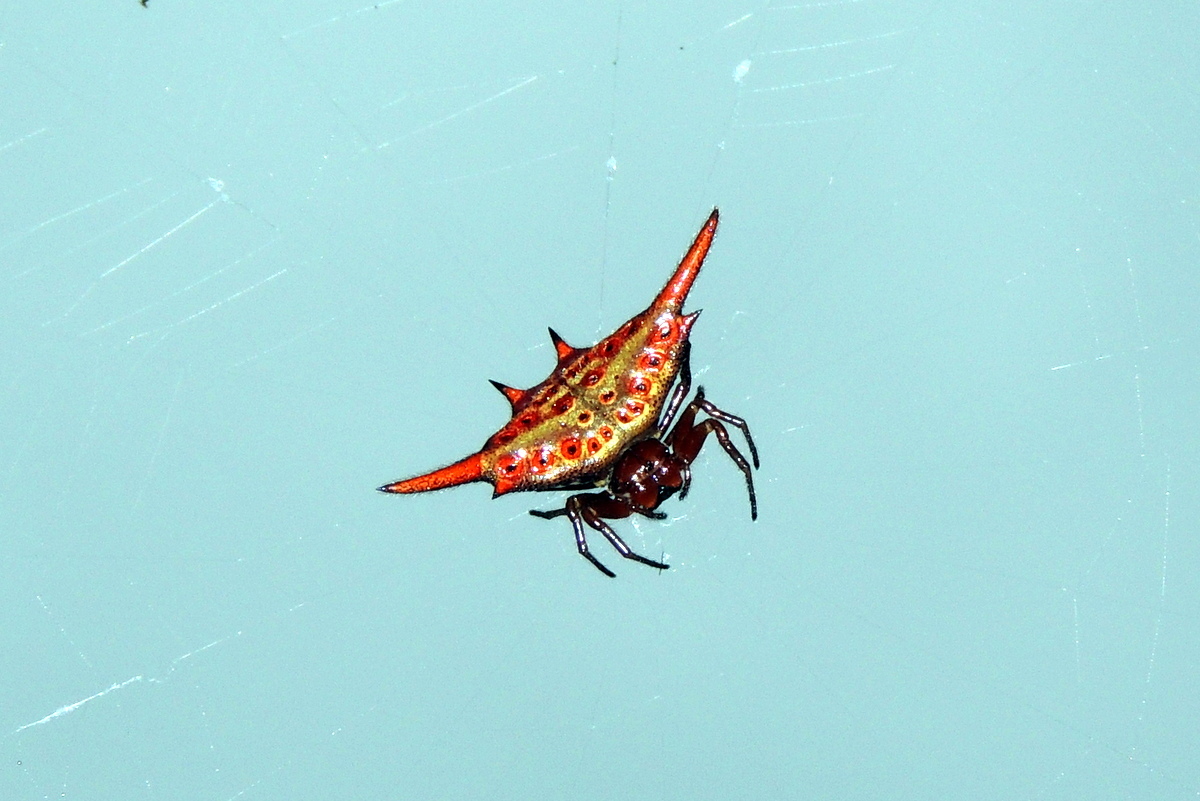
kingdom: Animalia
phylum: Arthropoda
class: Arachnida
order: Araneae
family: Araneidae
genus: Gasteracantha
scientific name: Gasteracantha versicolor
